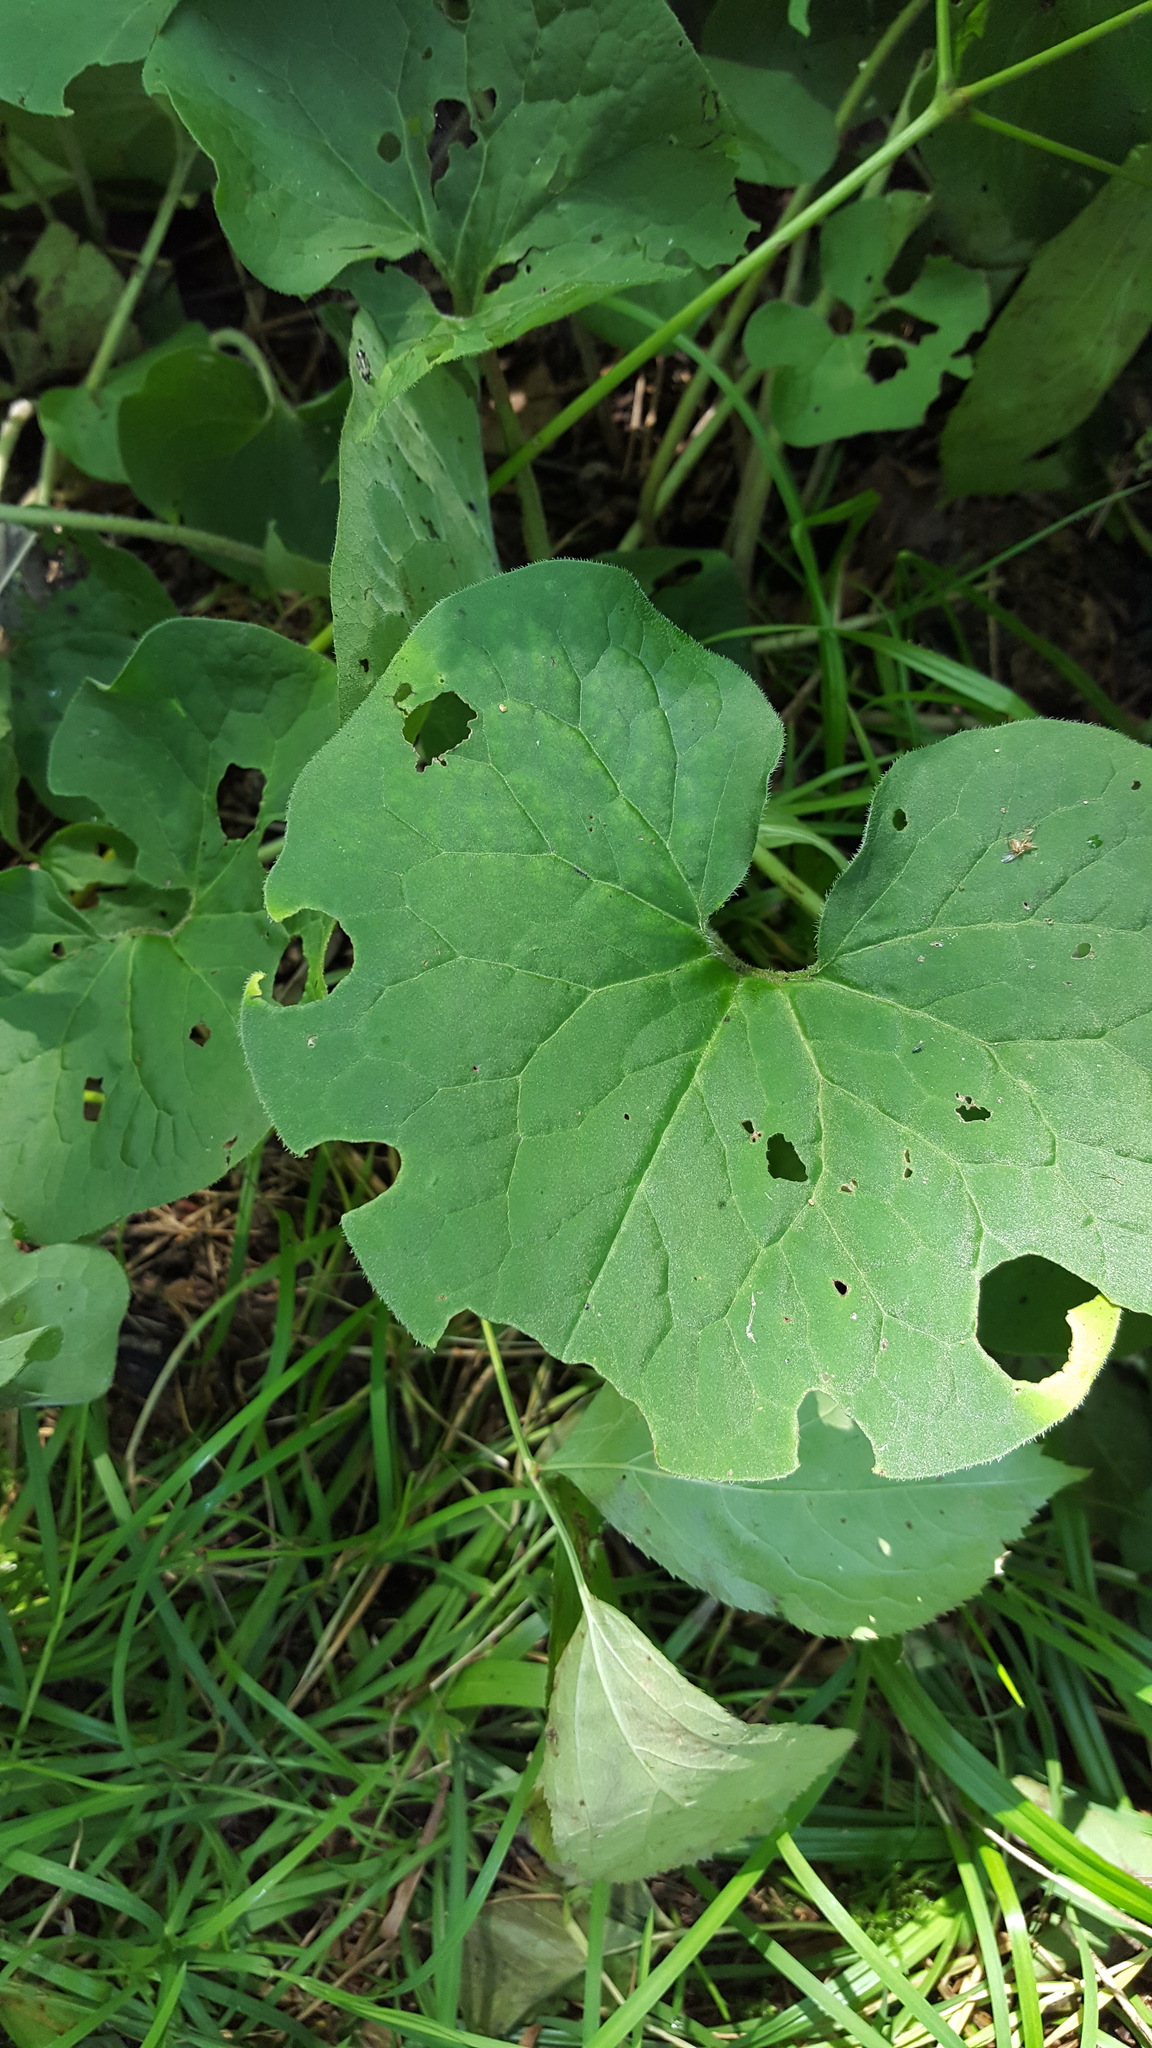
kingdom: Plantae
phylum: Tracheophyta
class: Magnoliopsida
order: Piperales
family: Aristolochiaceae
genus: Asarum
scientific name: Asarum canadense
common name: Wild ginger
